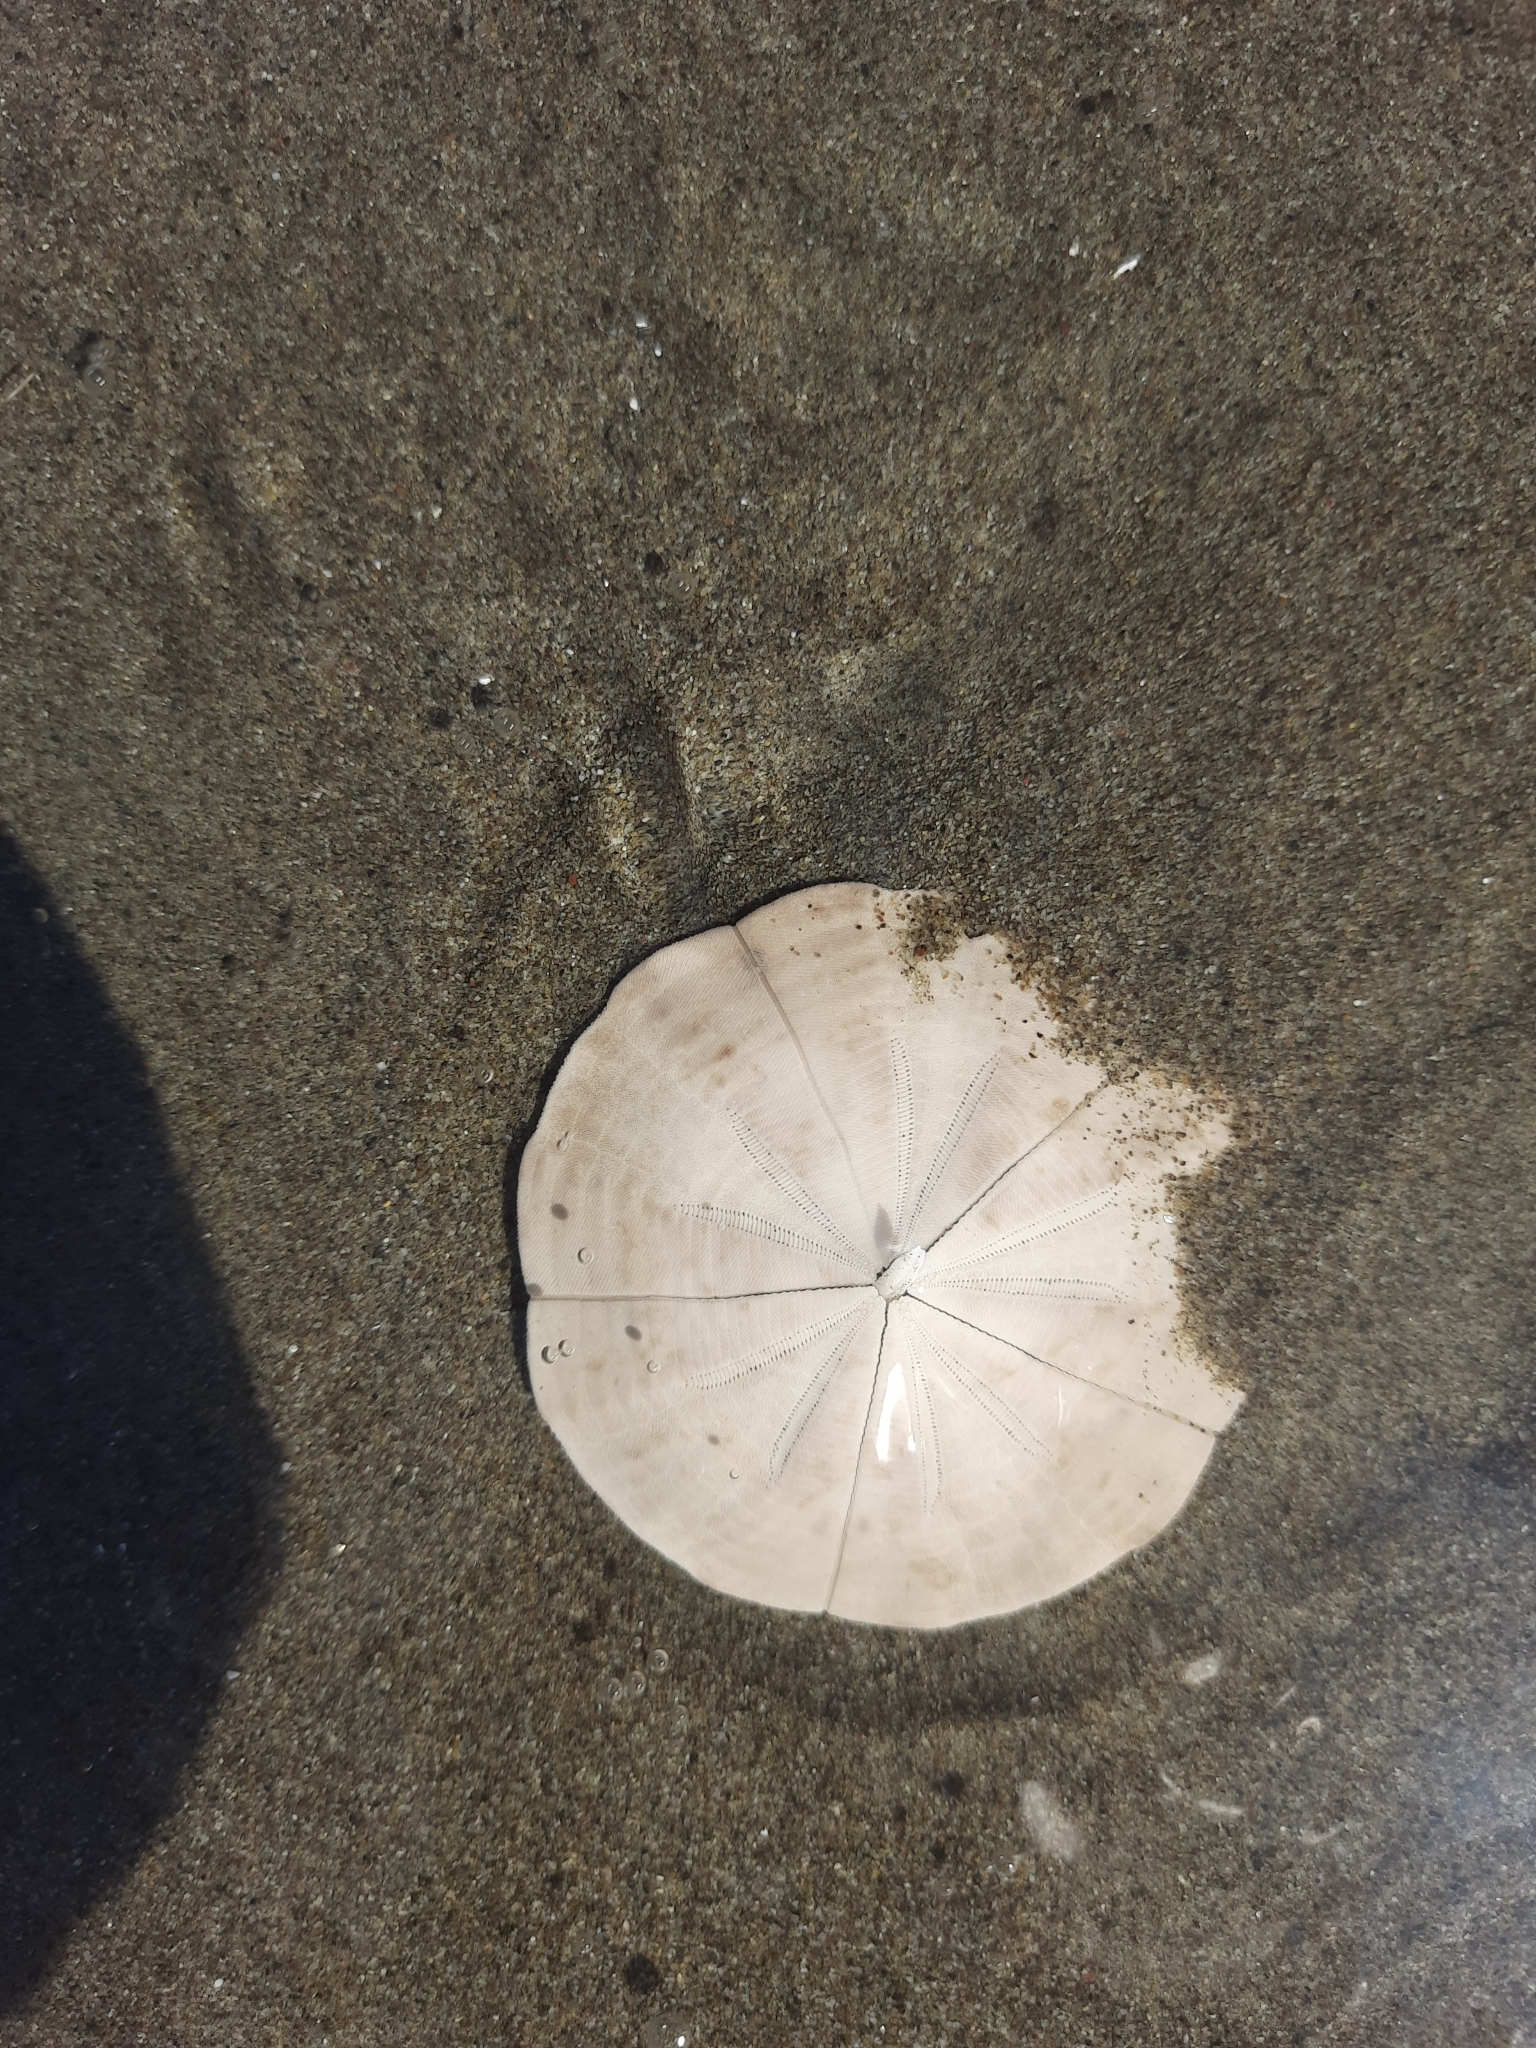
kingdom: Animalia
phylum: Echinodermata
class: Echinoidea
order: Clypeasteroida
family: Clypeasteridae
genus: Fellaster
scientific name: Fellaster zelandiae
